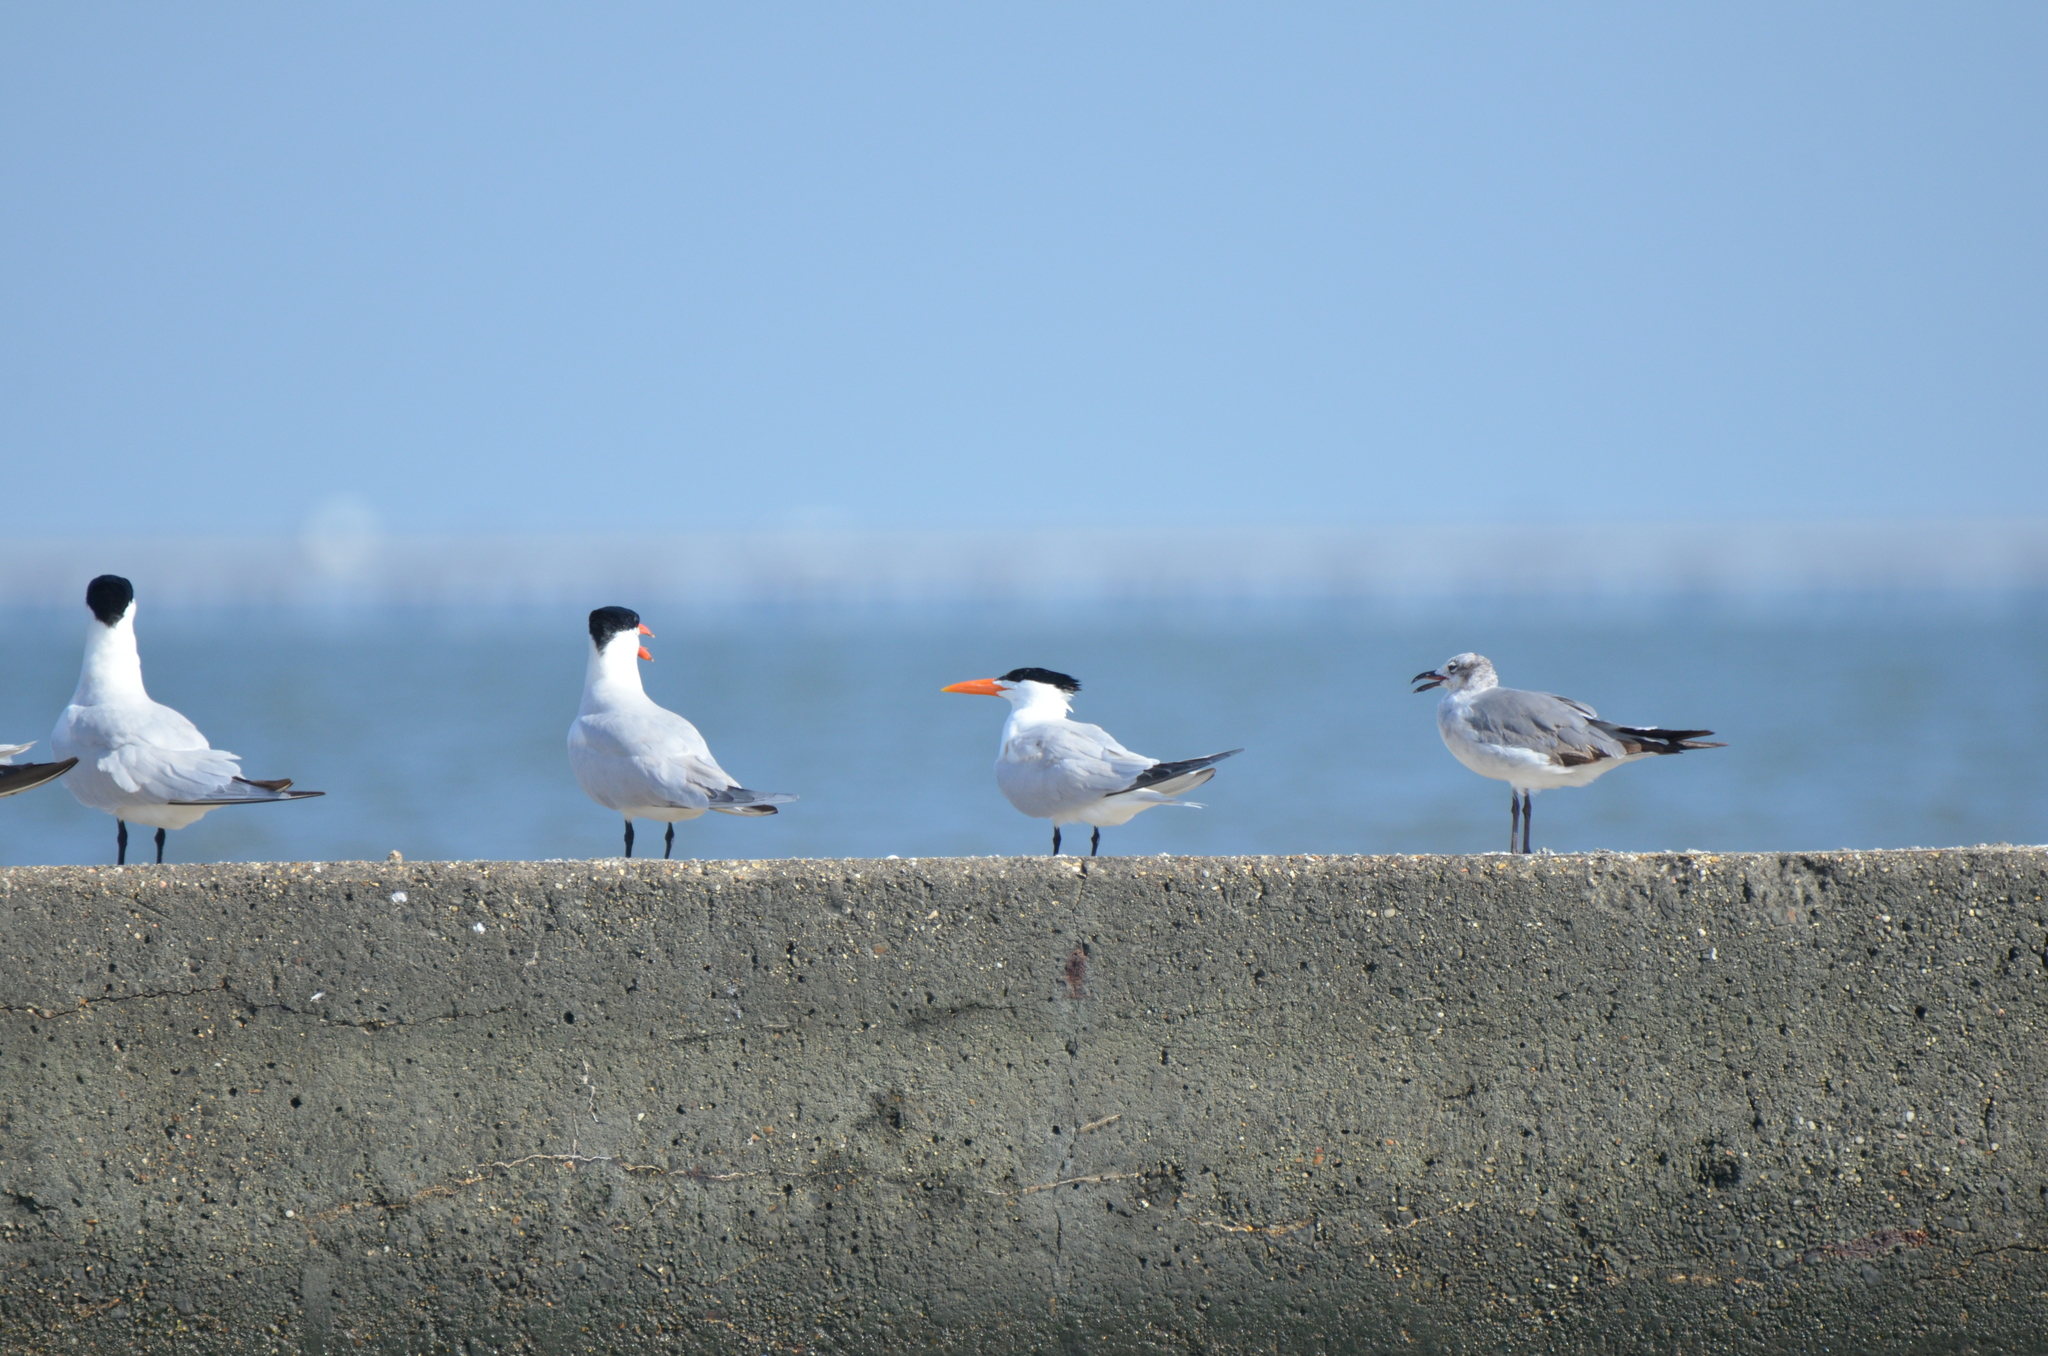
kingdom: Animalia
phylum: Chordata
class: Aves
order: Charadriiformes
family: Laridae
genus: Thalasseus
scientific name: Thalasseus maximus
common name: Royal tern
